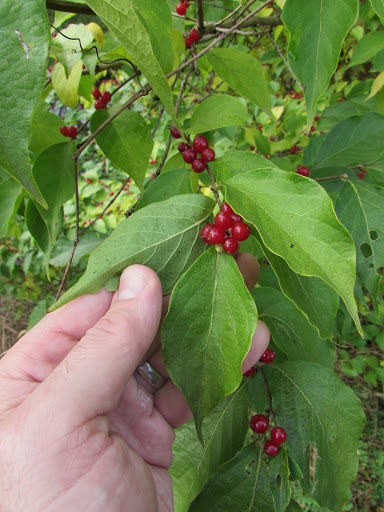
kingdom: Plantae
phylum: Tracheophyta
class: Magnoliopsida
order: Dipsacales
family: Caprifoliaceae
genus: Lonicera
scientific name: Lonicera maackii
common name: Amur honeysuckle
